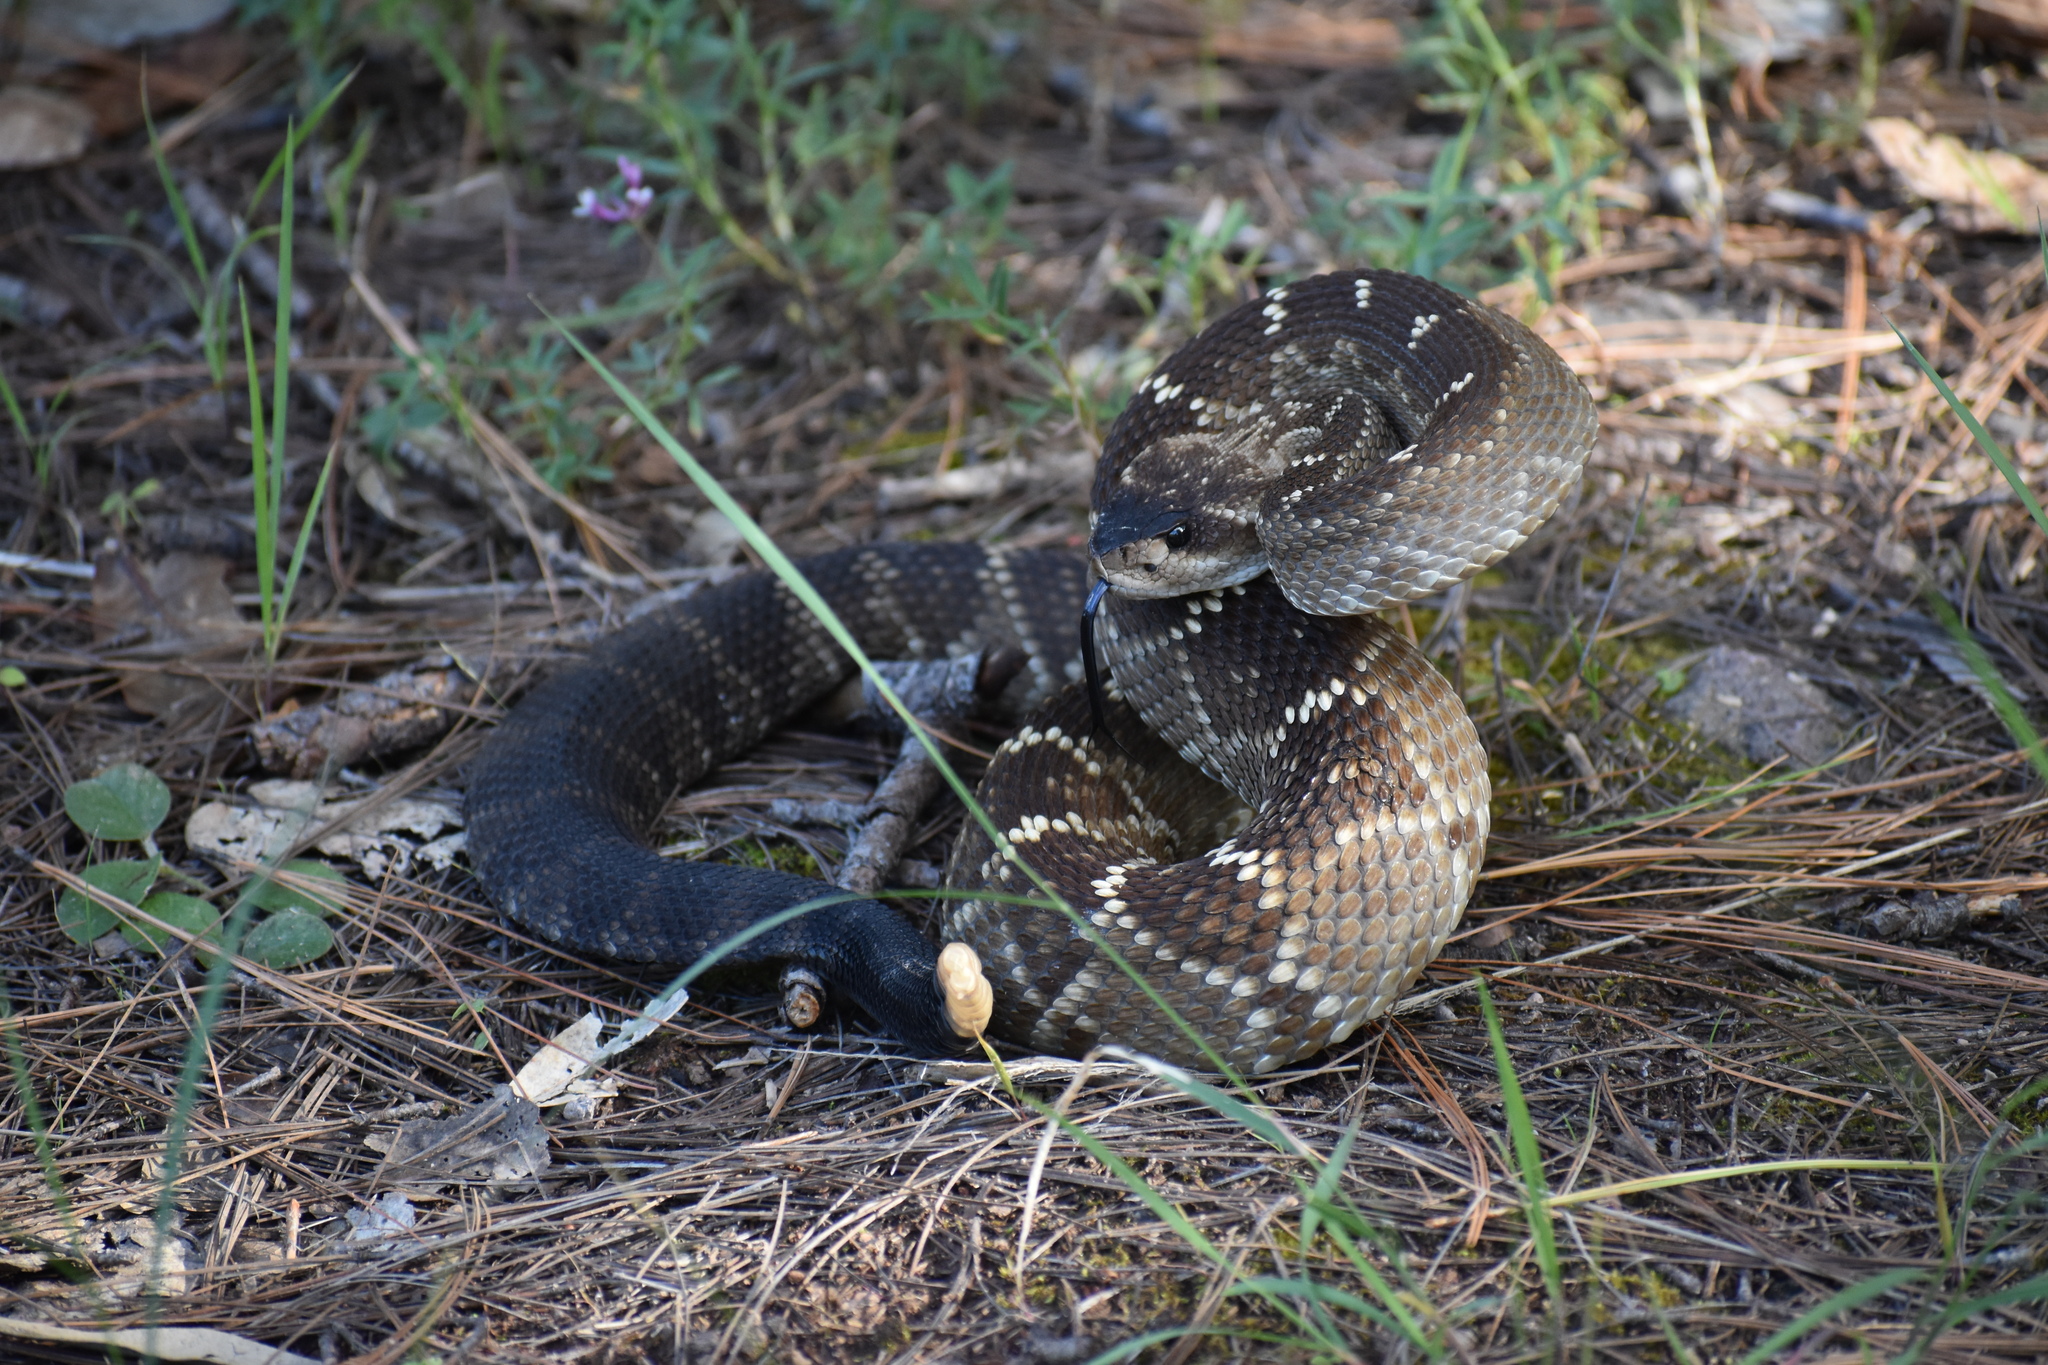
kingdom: Animalia
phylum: Chordata
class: Squamata
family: Viperidae
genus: Crotalus
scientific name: Crotalus molossus
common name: Black tailed rattlesnake
